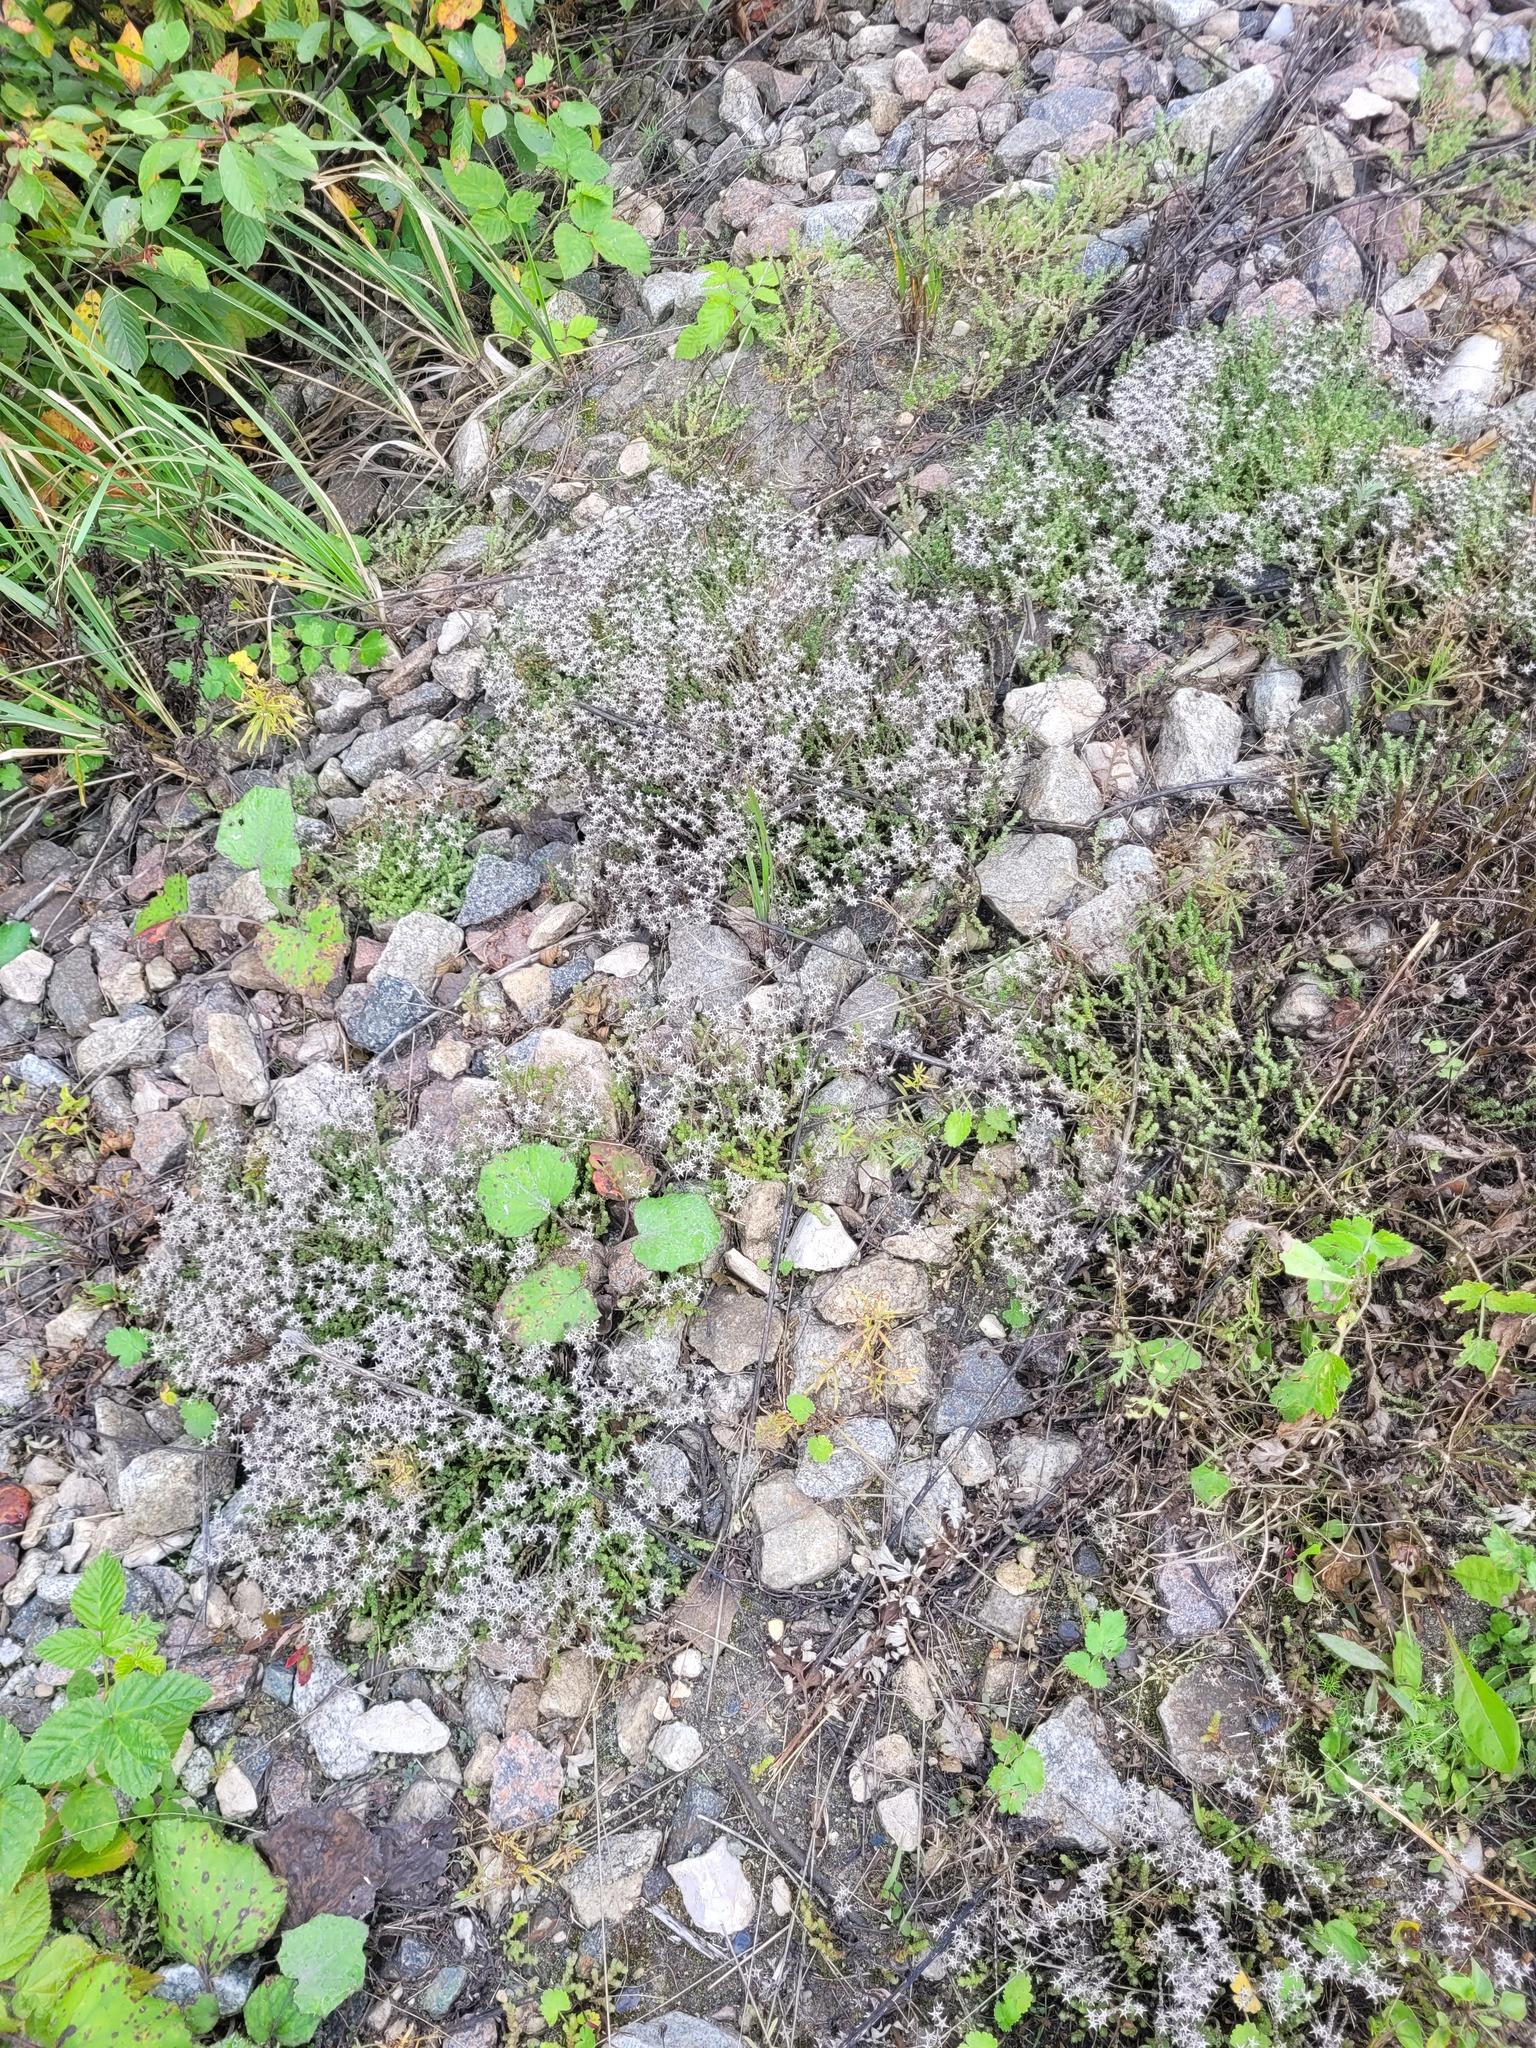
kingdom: Plantae
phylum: Tracheophyta
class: Magnoliopsida
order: Saxifragales
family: Crassulaceae
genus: Sedum
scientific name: Sedum acre
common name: Biting stonecrop
